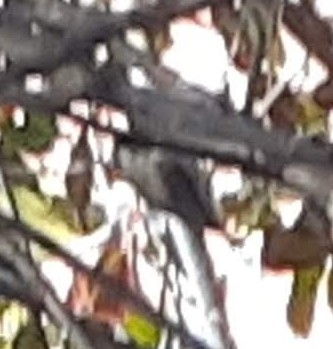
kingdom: Animalia
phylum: Chordata
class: Aves
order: Passeriformes
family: Paridae
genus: Poecile
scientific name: Poecile carolinensis
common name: Carolina chickadee
